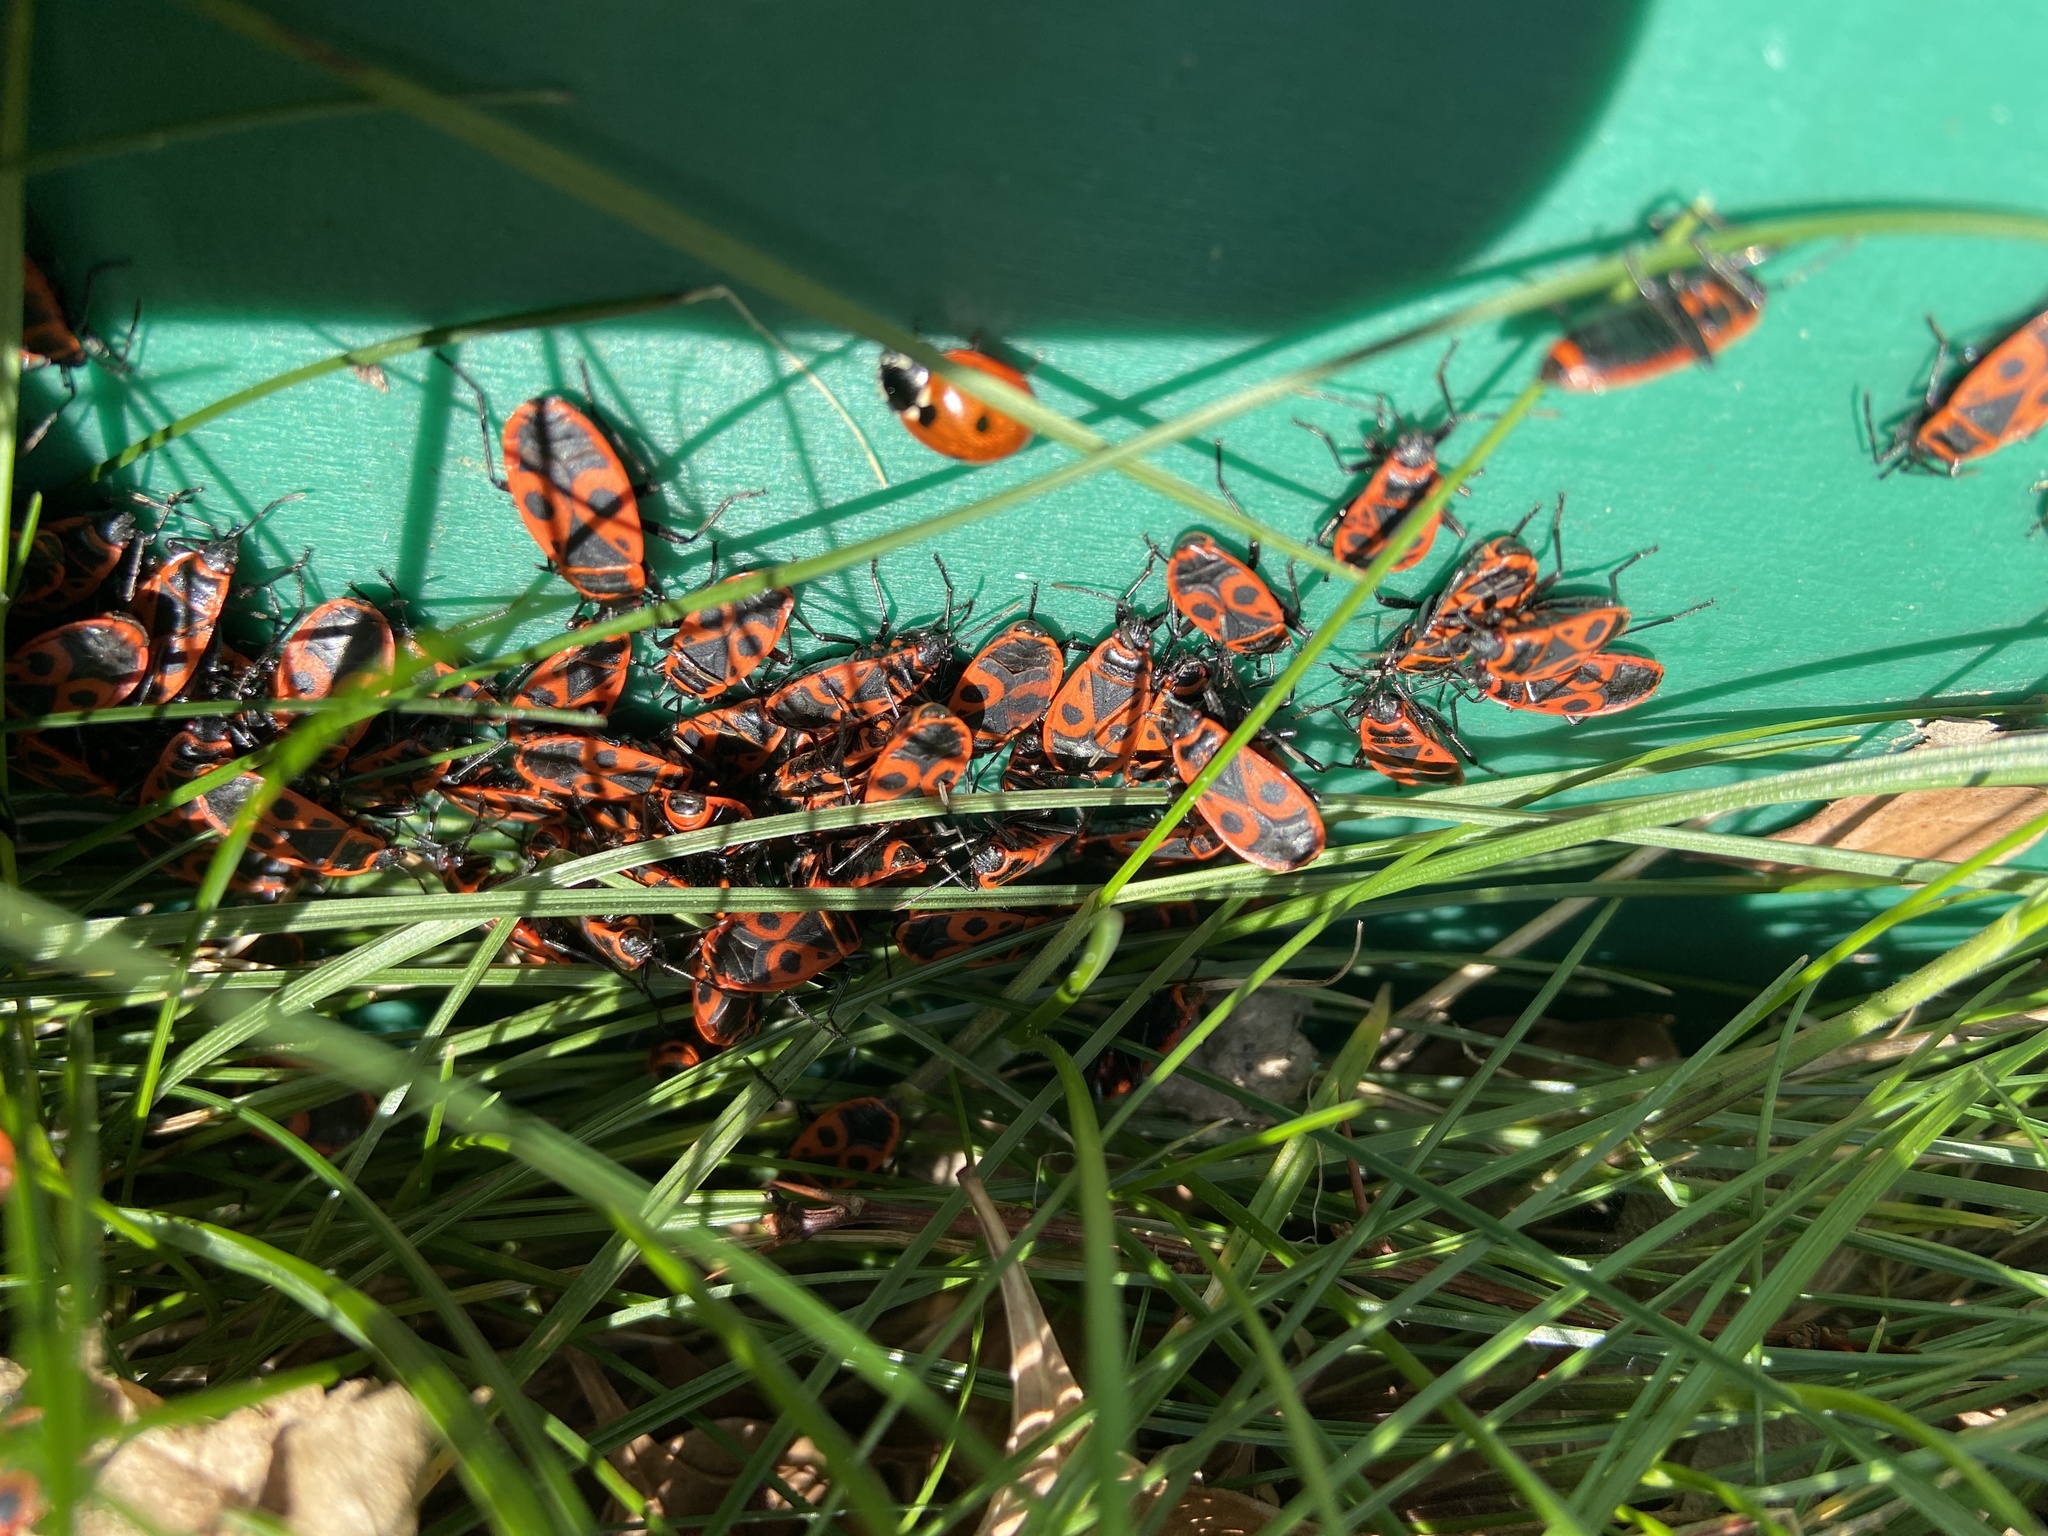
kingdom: Animalia
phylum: Arthropoda
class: Insecta
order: Hemiptera
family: Pyrrhocoridae
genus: Pyrrhocoris
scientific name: Pyrrhocoris apterus
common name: Firebug
